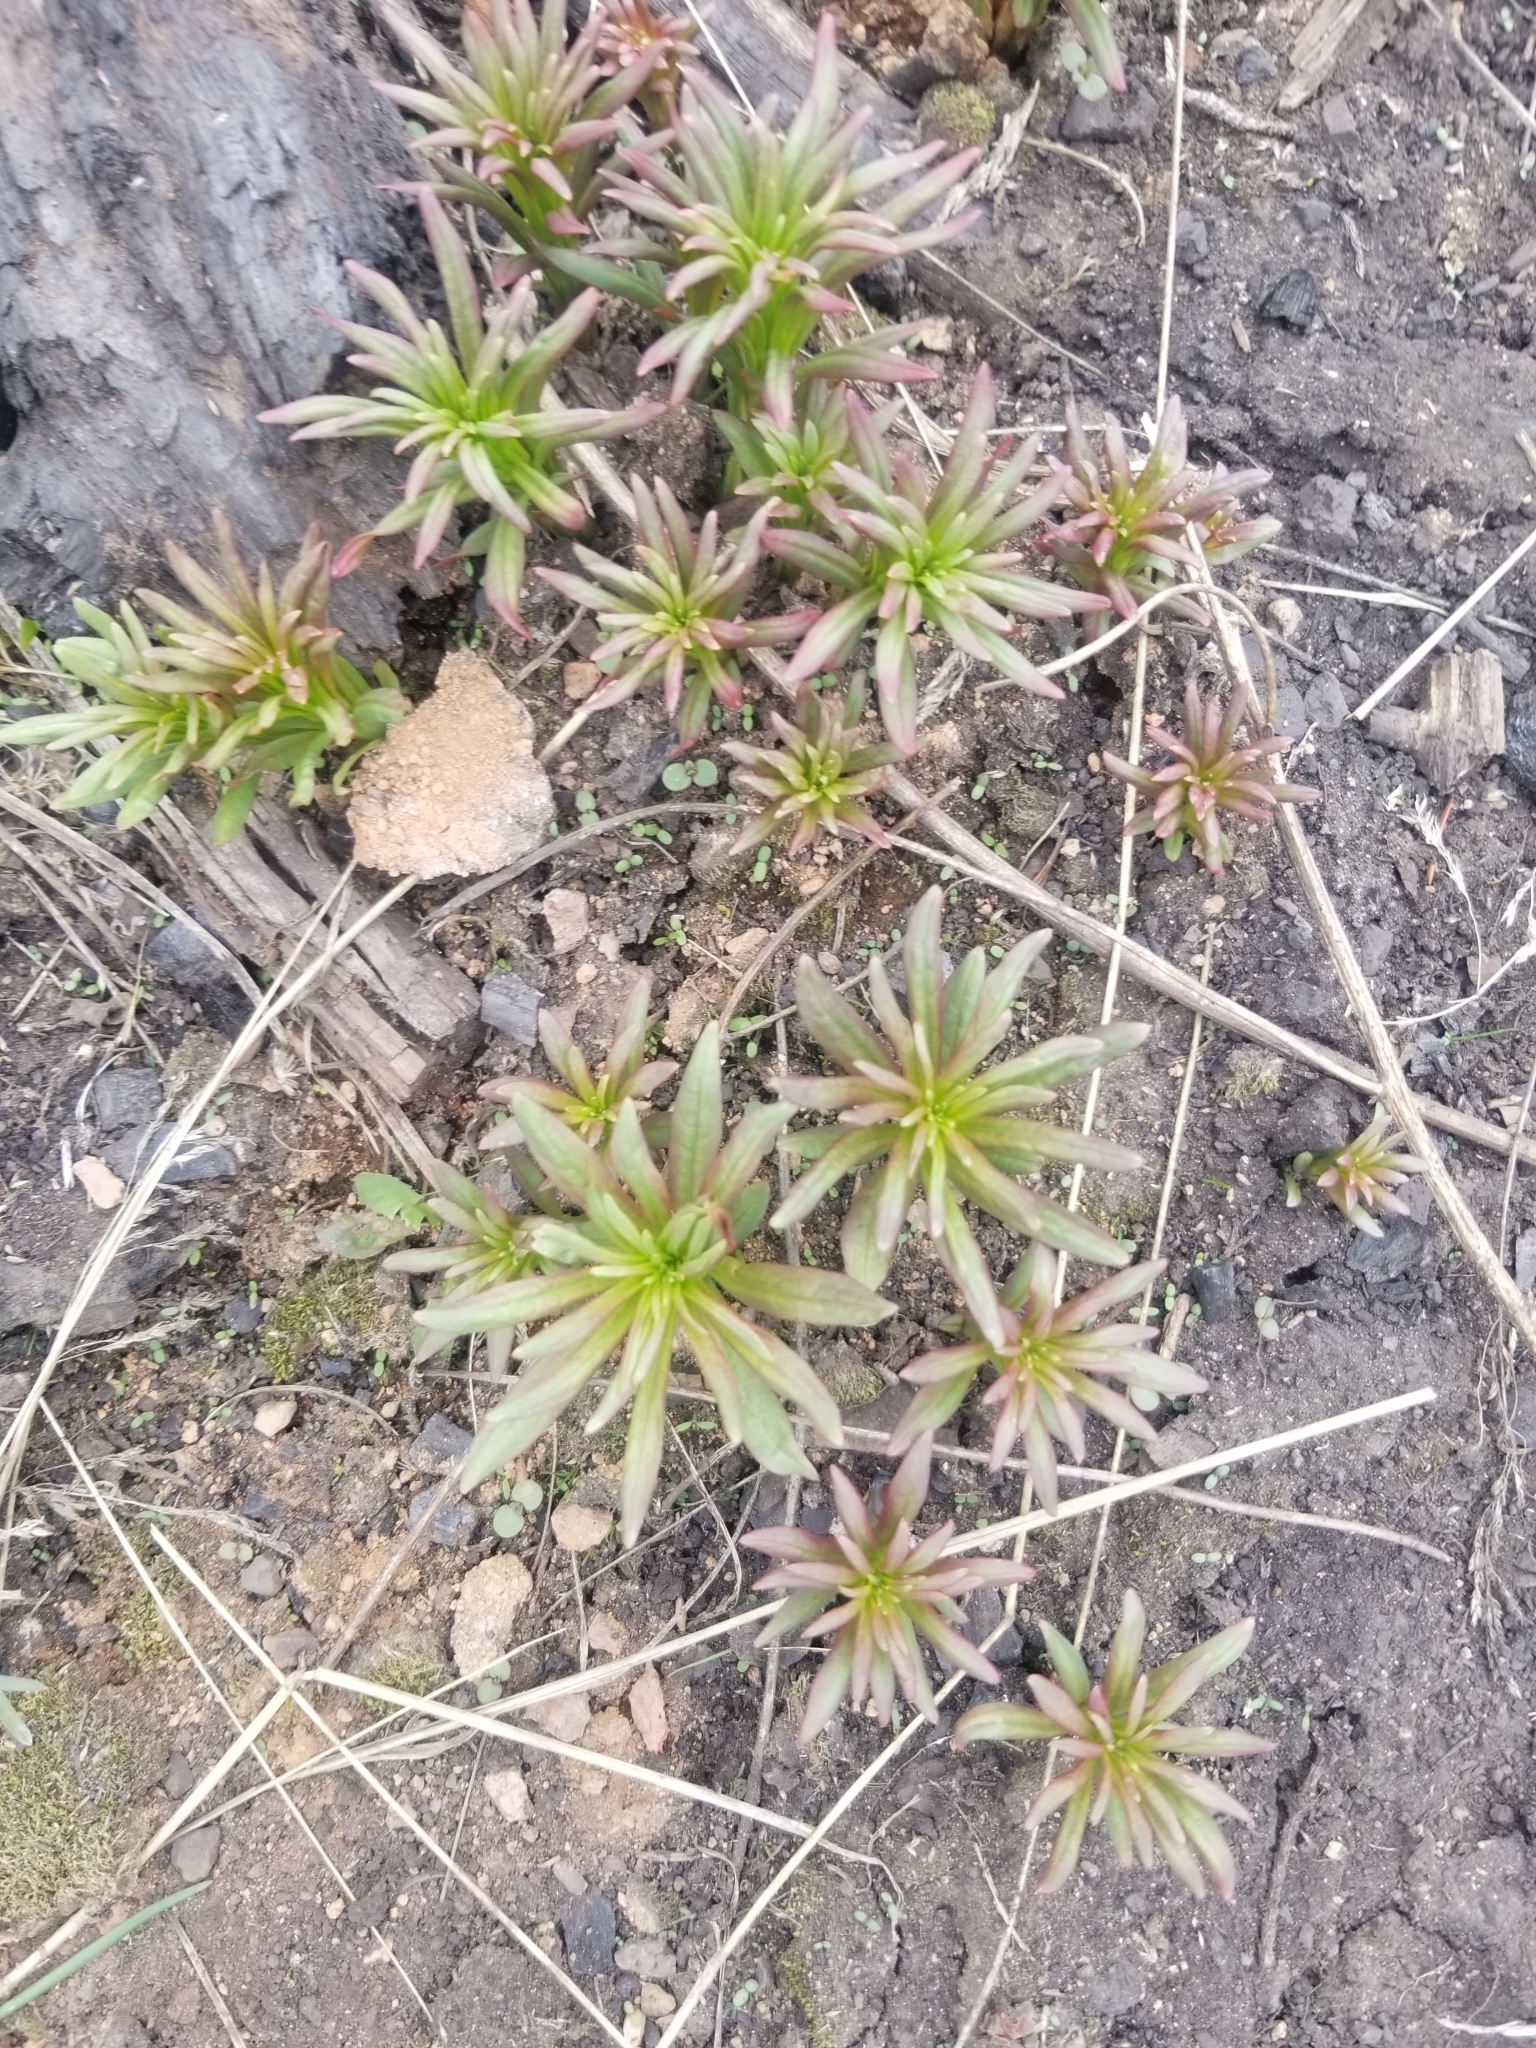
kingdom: Plantae
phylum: Tracheophyta
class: Magnoliopsida
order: Myrtales
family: Onagraceae
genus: Chamaenerion
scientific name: Chamaenerion angustifolium
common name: Fireweed
